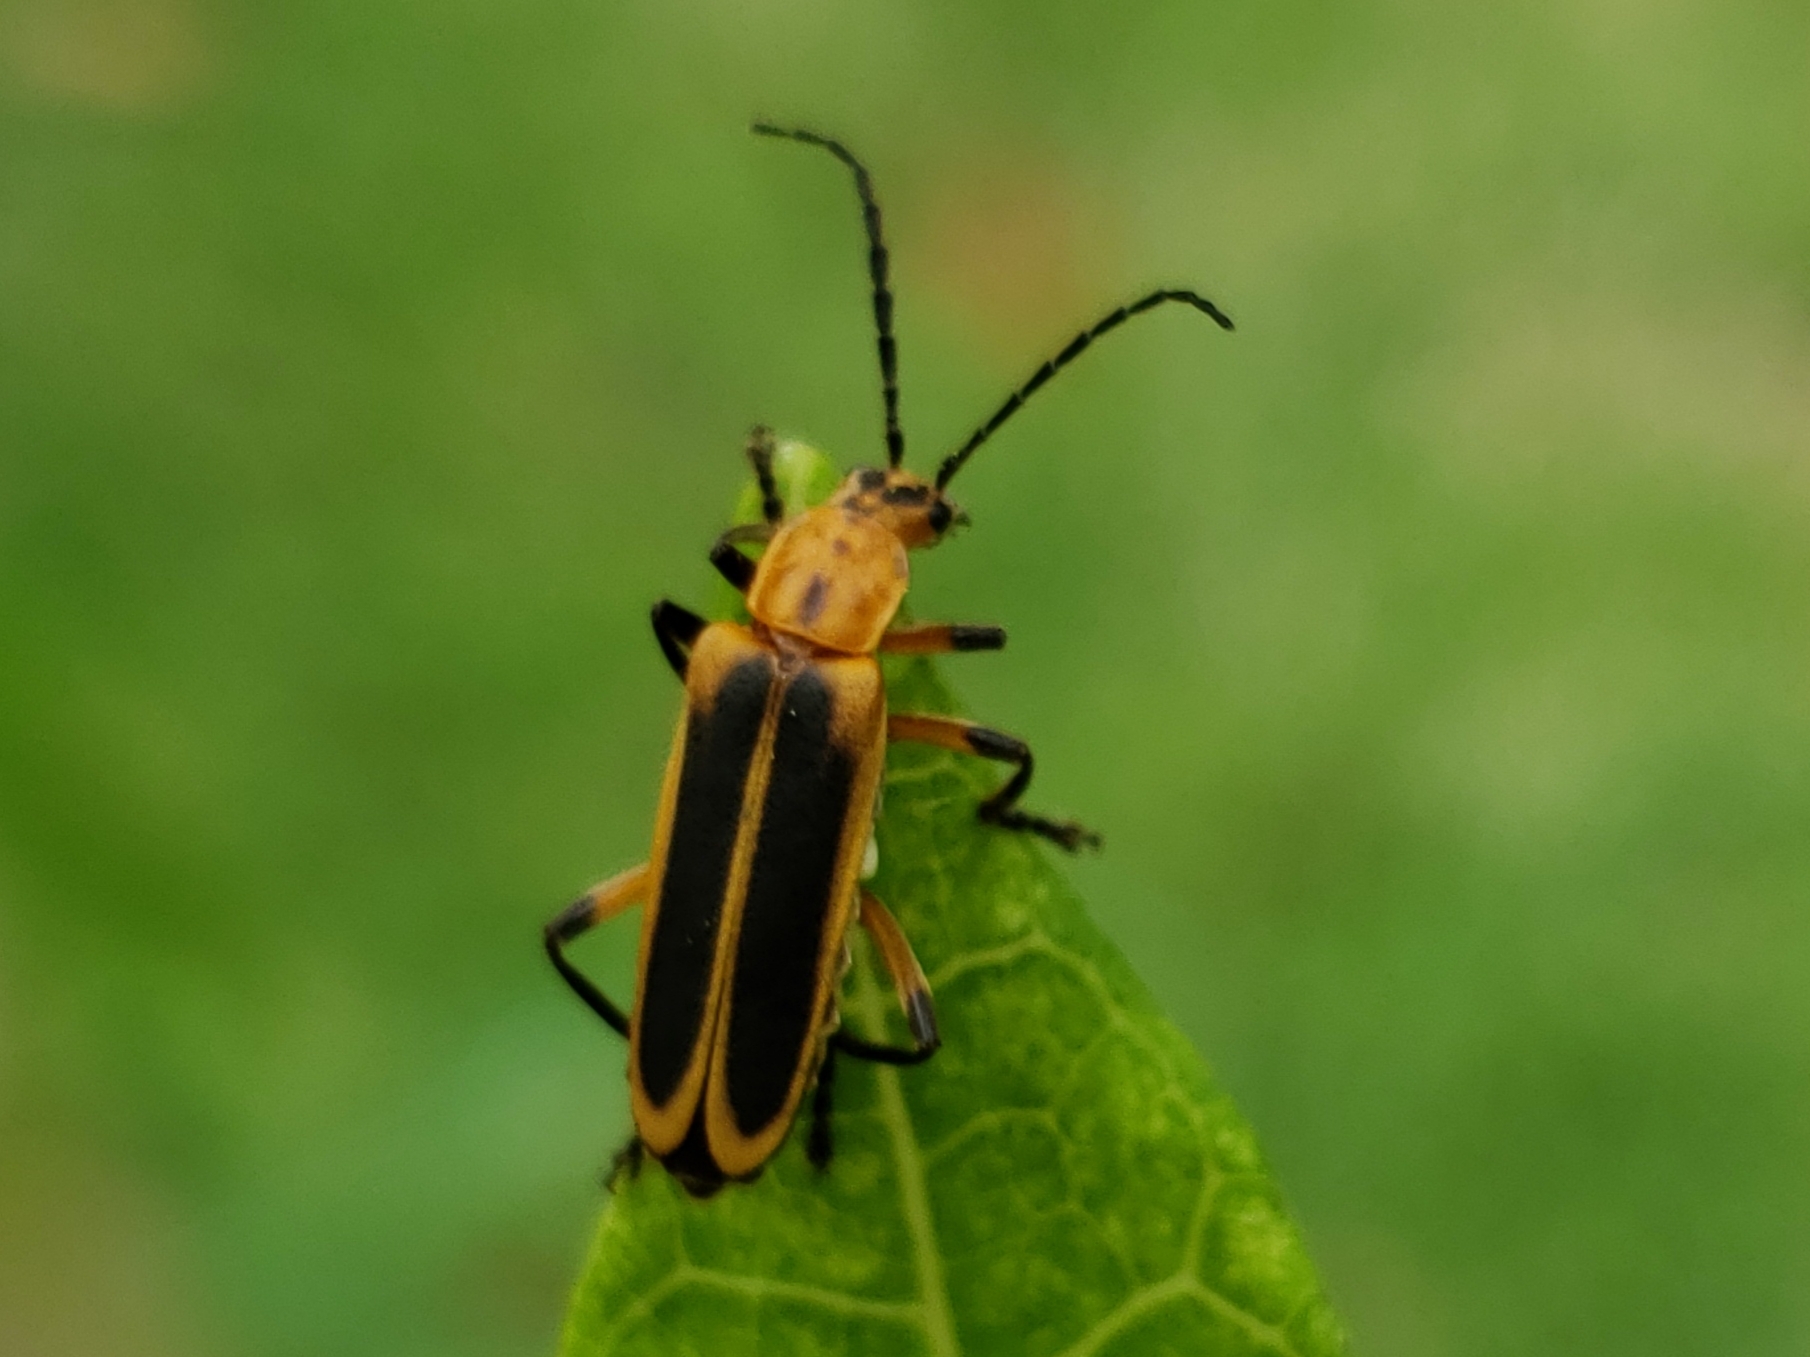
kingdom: Animalia
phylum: Arthropoda
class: Insecta
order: Coleoptera
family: Cantharidae
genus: Chauliognathus
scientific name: Chauliognathus marginatus
